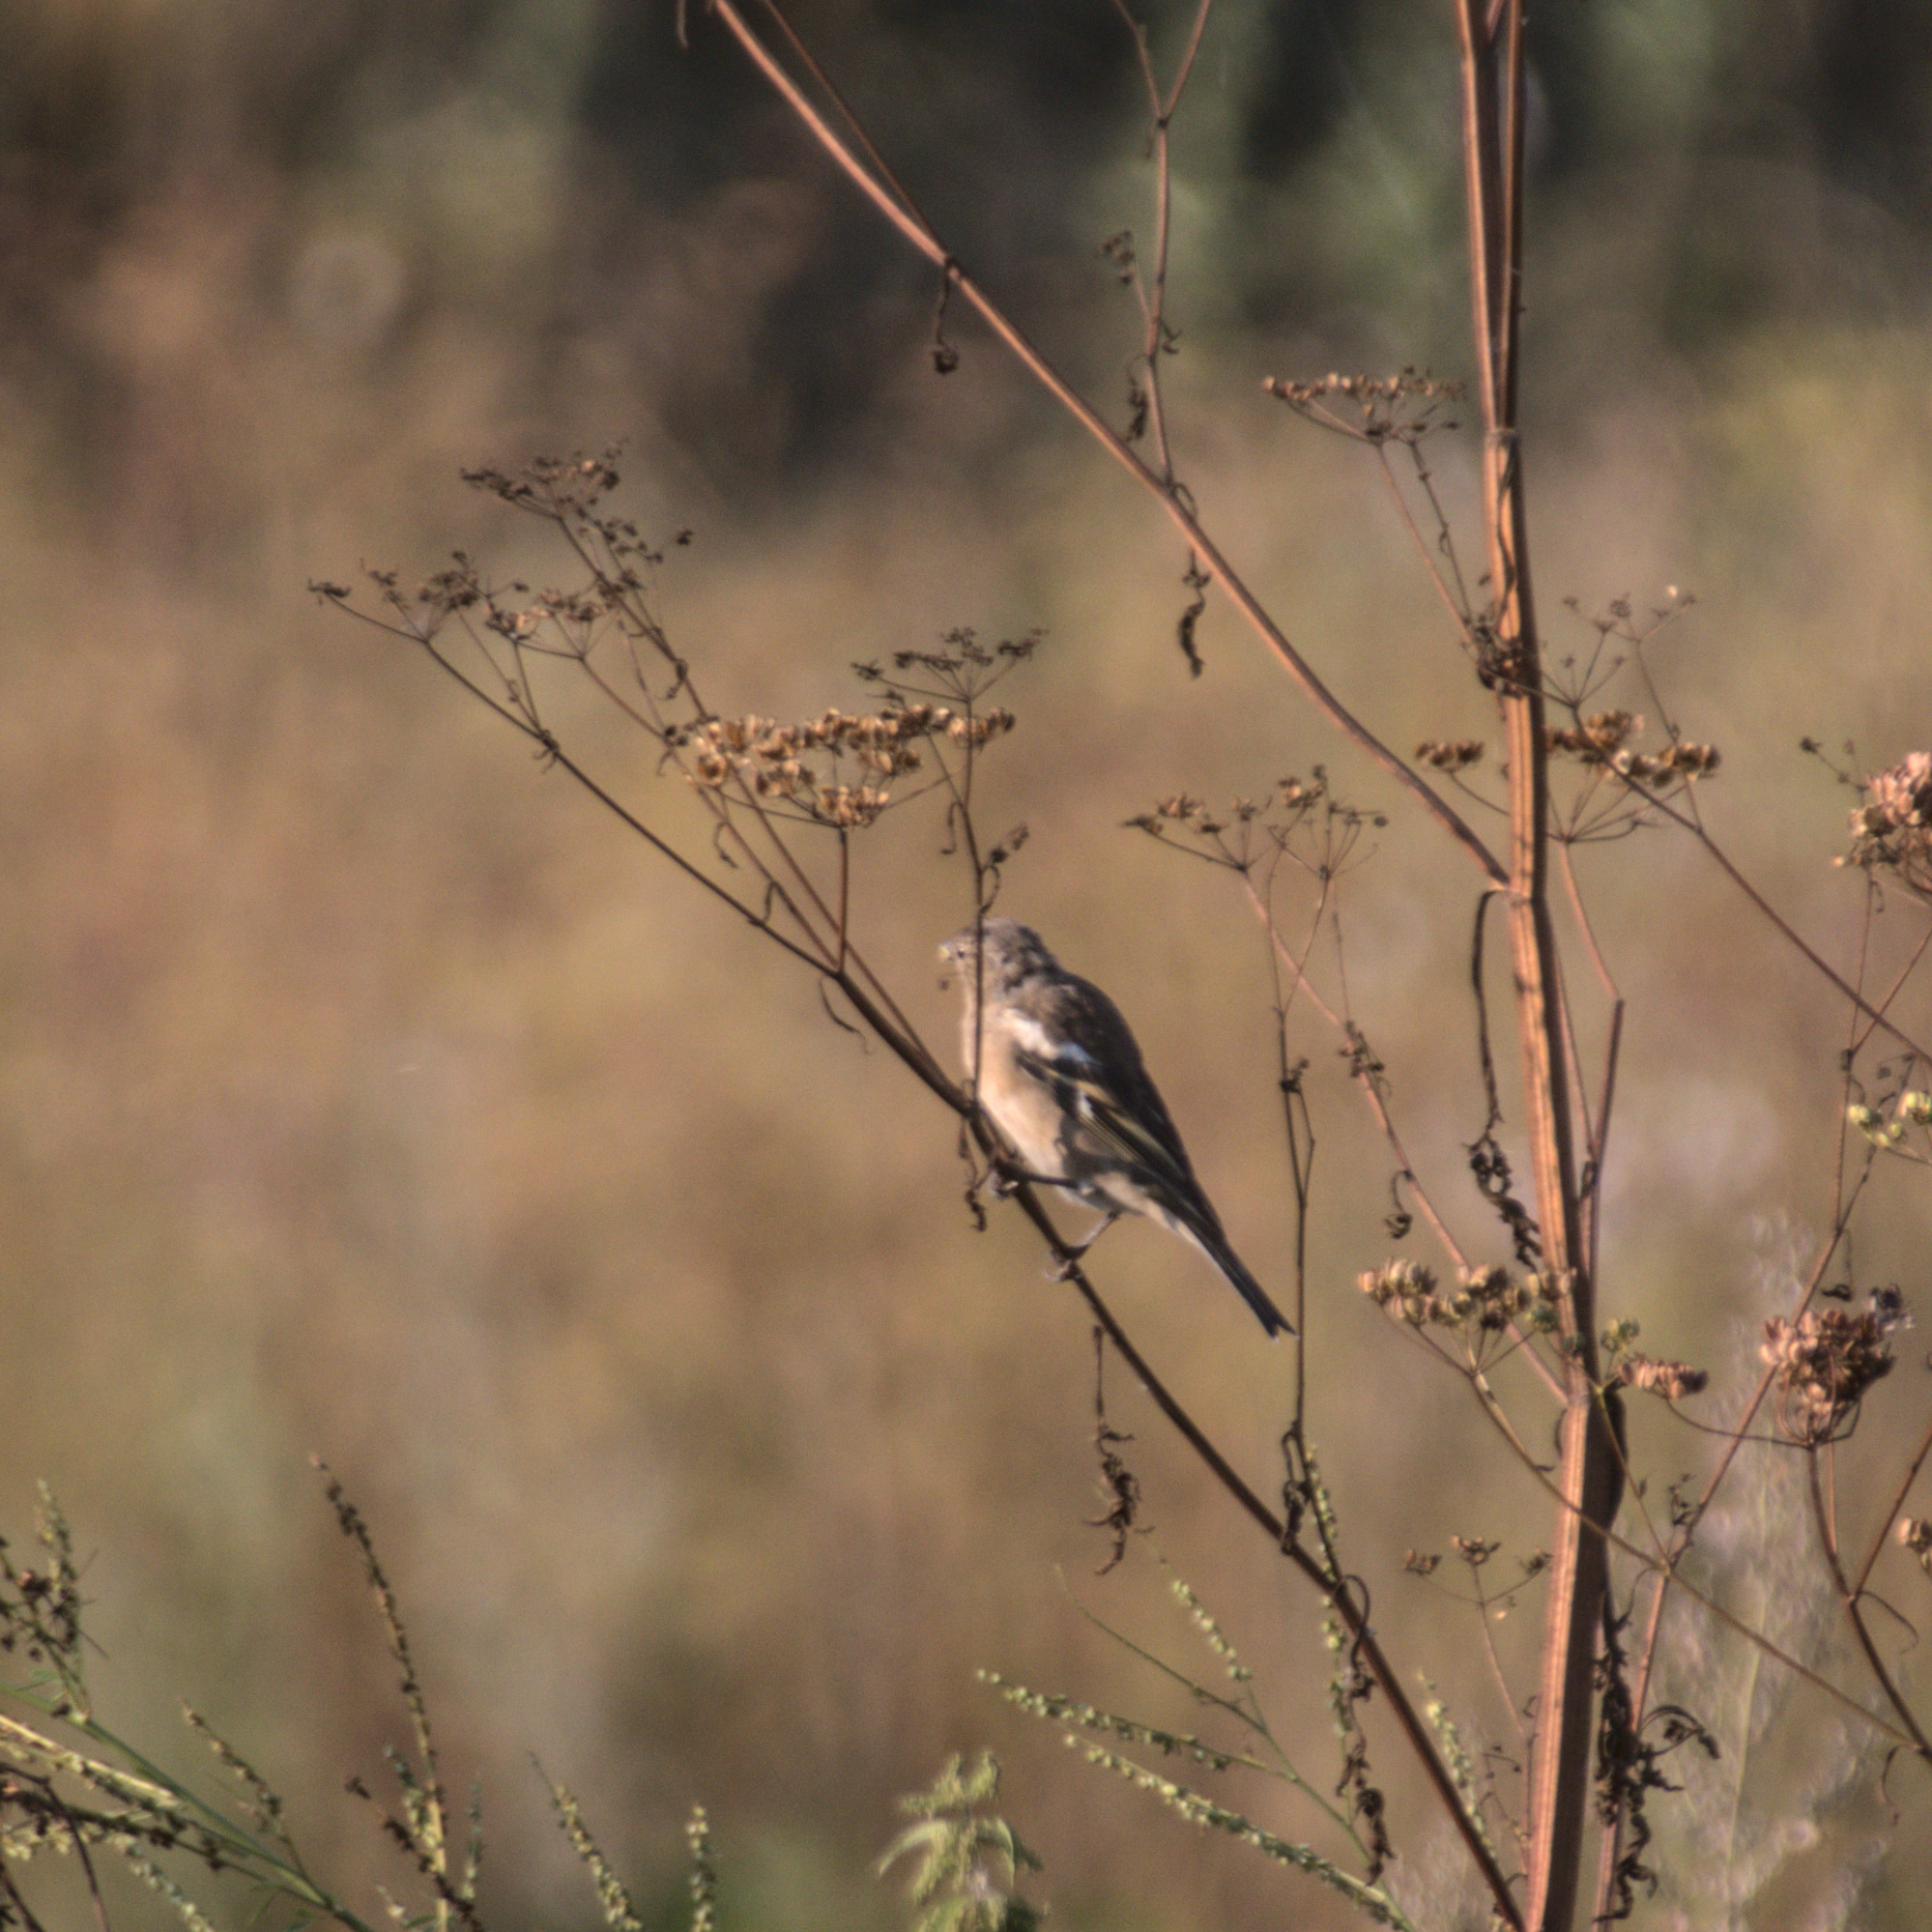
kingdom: Animalia
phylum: Chordata
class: Aves
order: Passeriformes
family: Fringillidae
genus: Fringilla
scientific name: Fringilla coelebs
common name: Common chaffinch
